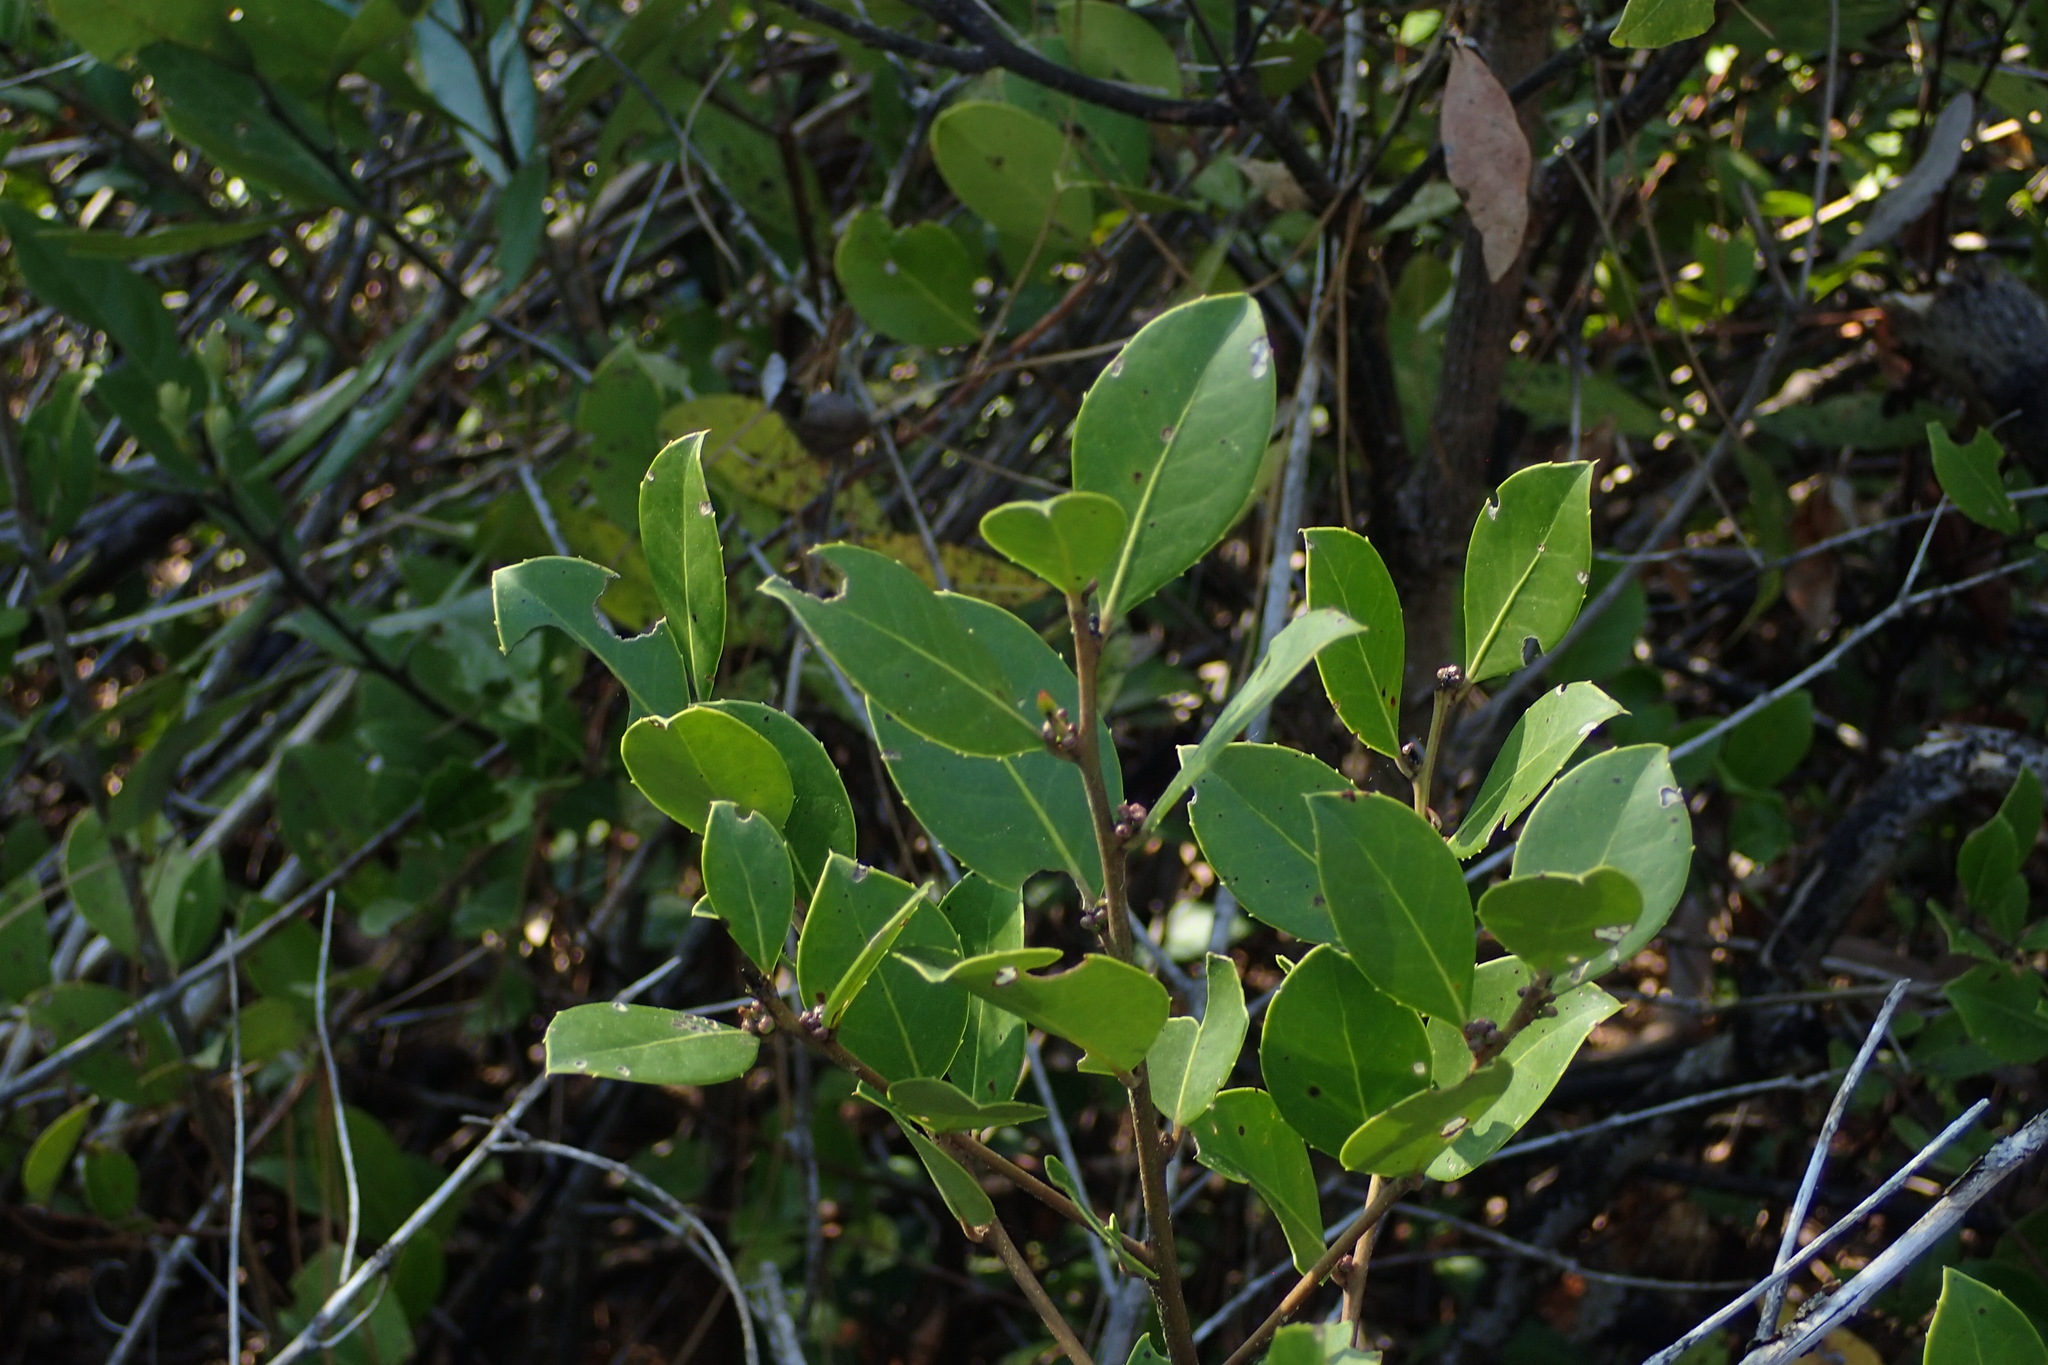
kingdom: Plantae
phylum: Tracheophyta
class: Magnoliopsida
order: Aquifoliales
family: Aquifoliaceae
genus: Ilex
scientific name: Ilex coriacea
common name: Sweet gallberry
